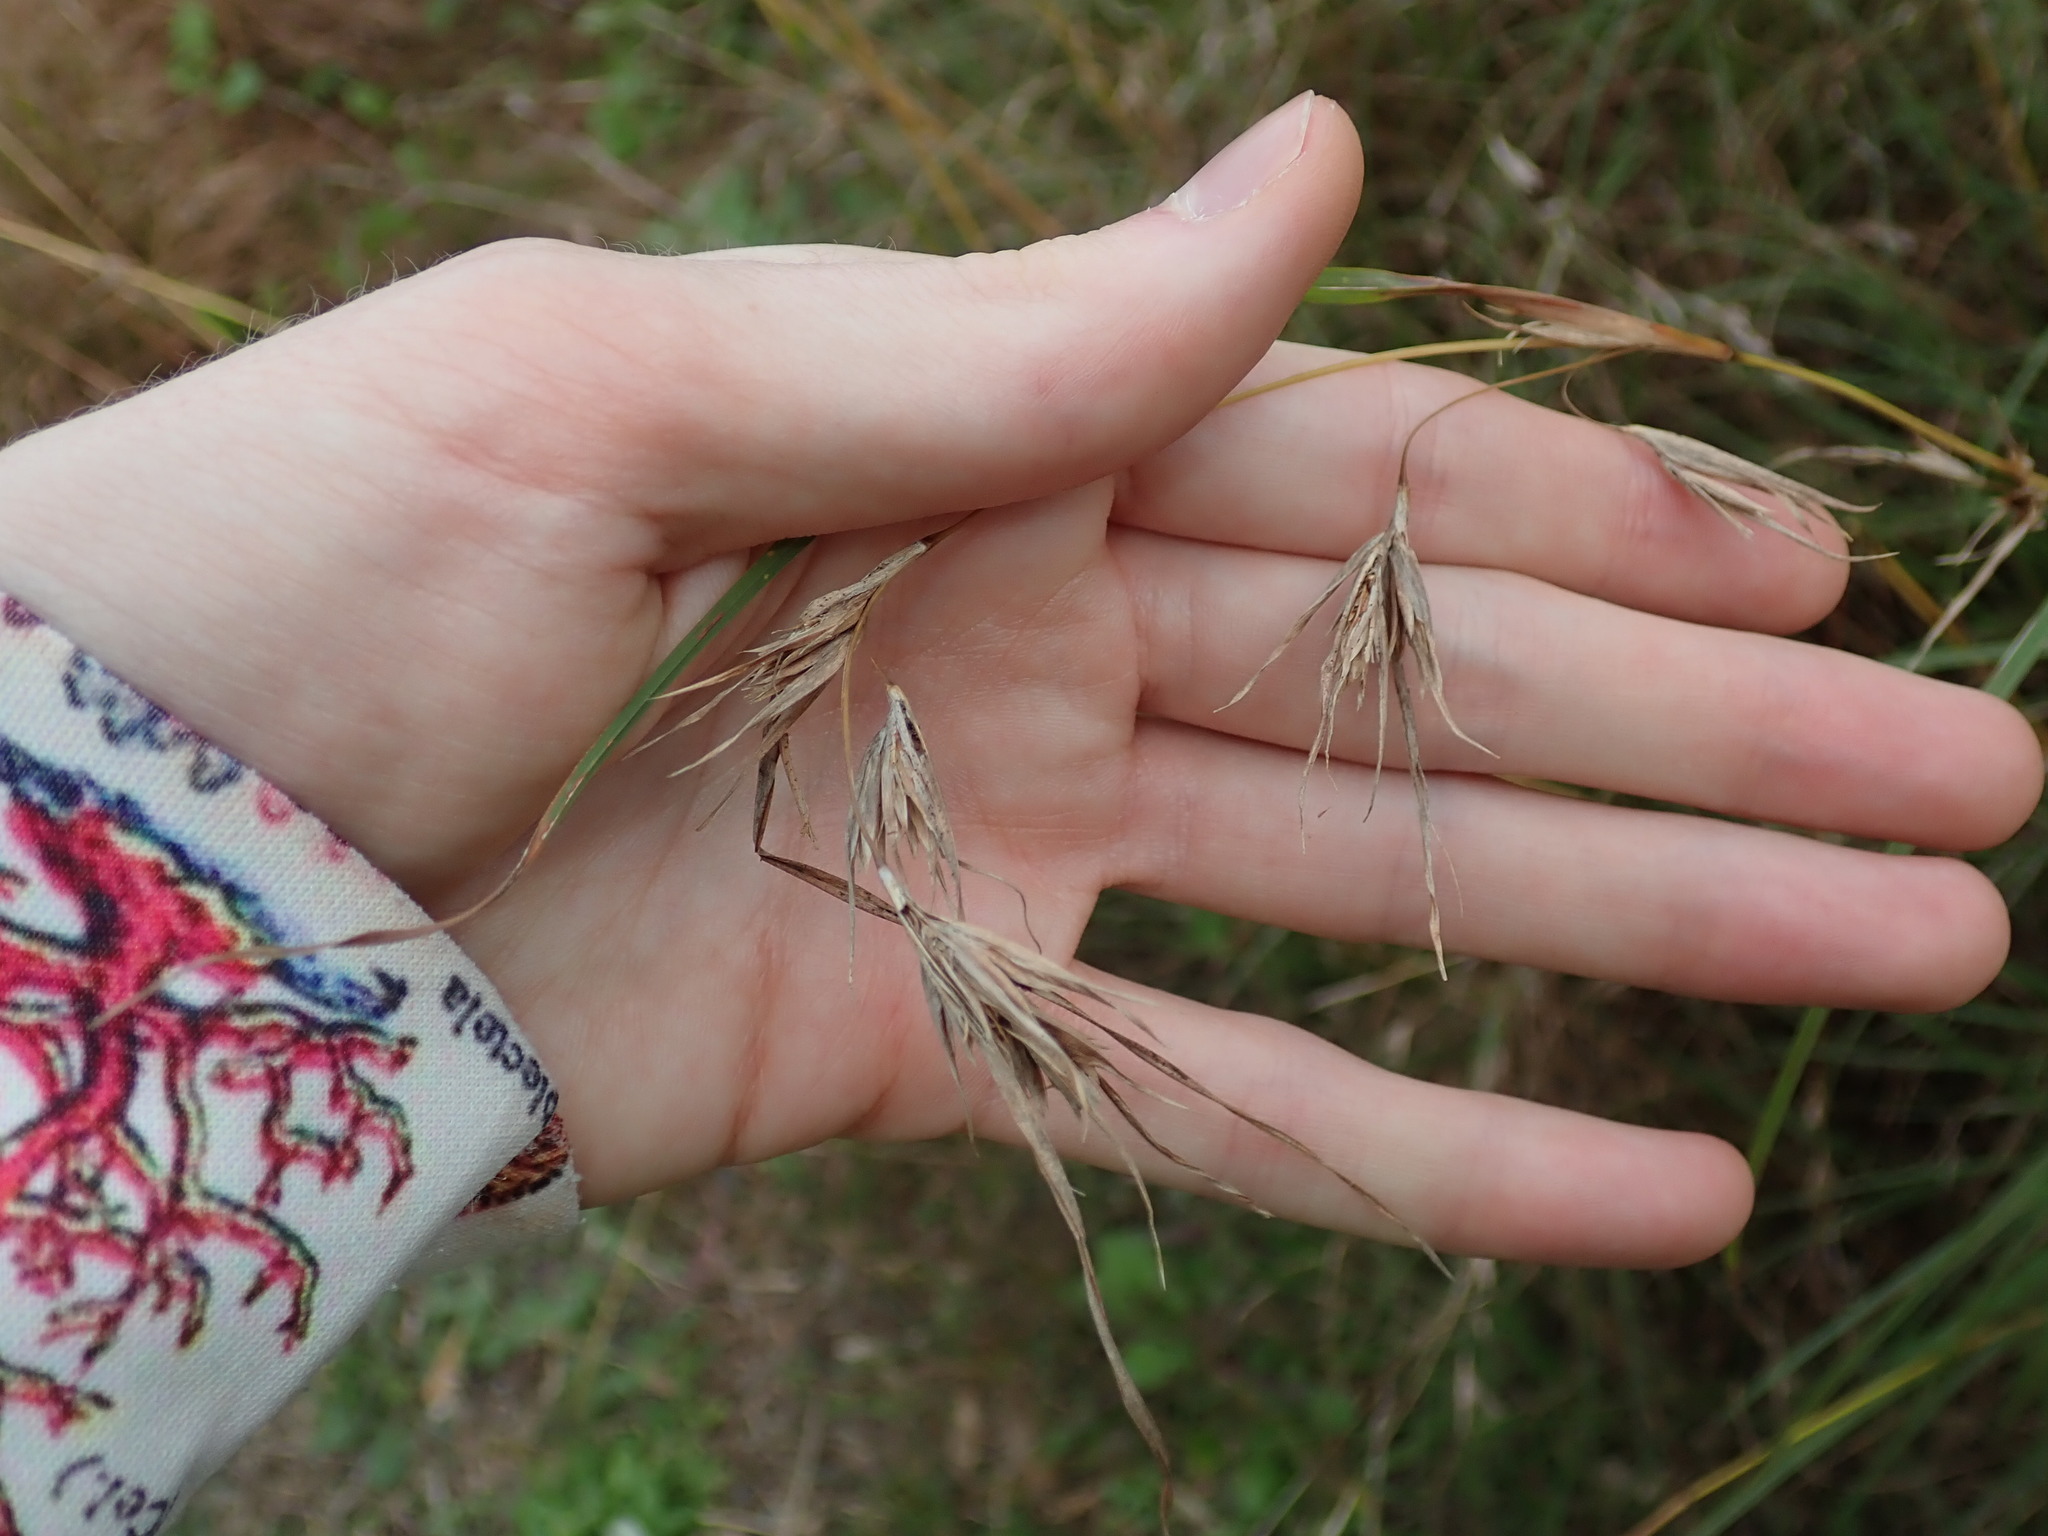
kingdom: Plantae
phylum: Tracheophyta
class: Liliopsida
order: Poales
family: Poaceae
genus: Themeda
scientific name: Themeda triandra
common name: Kangaroo grass
